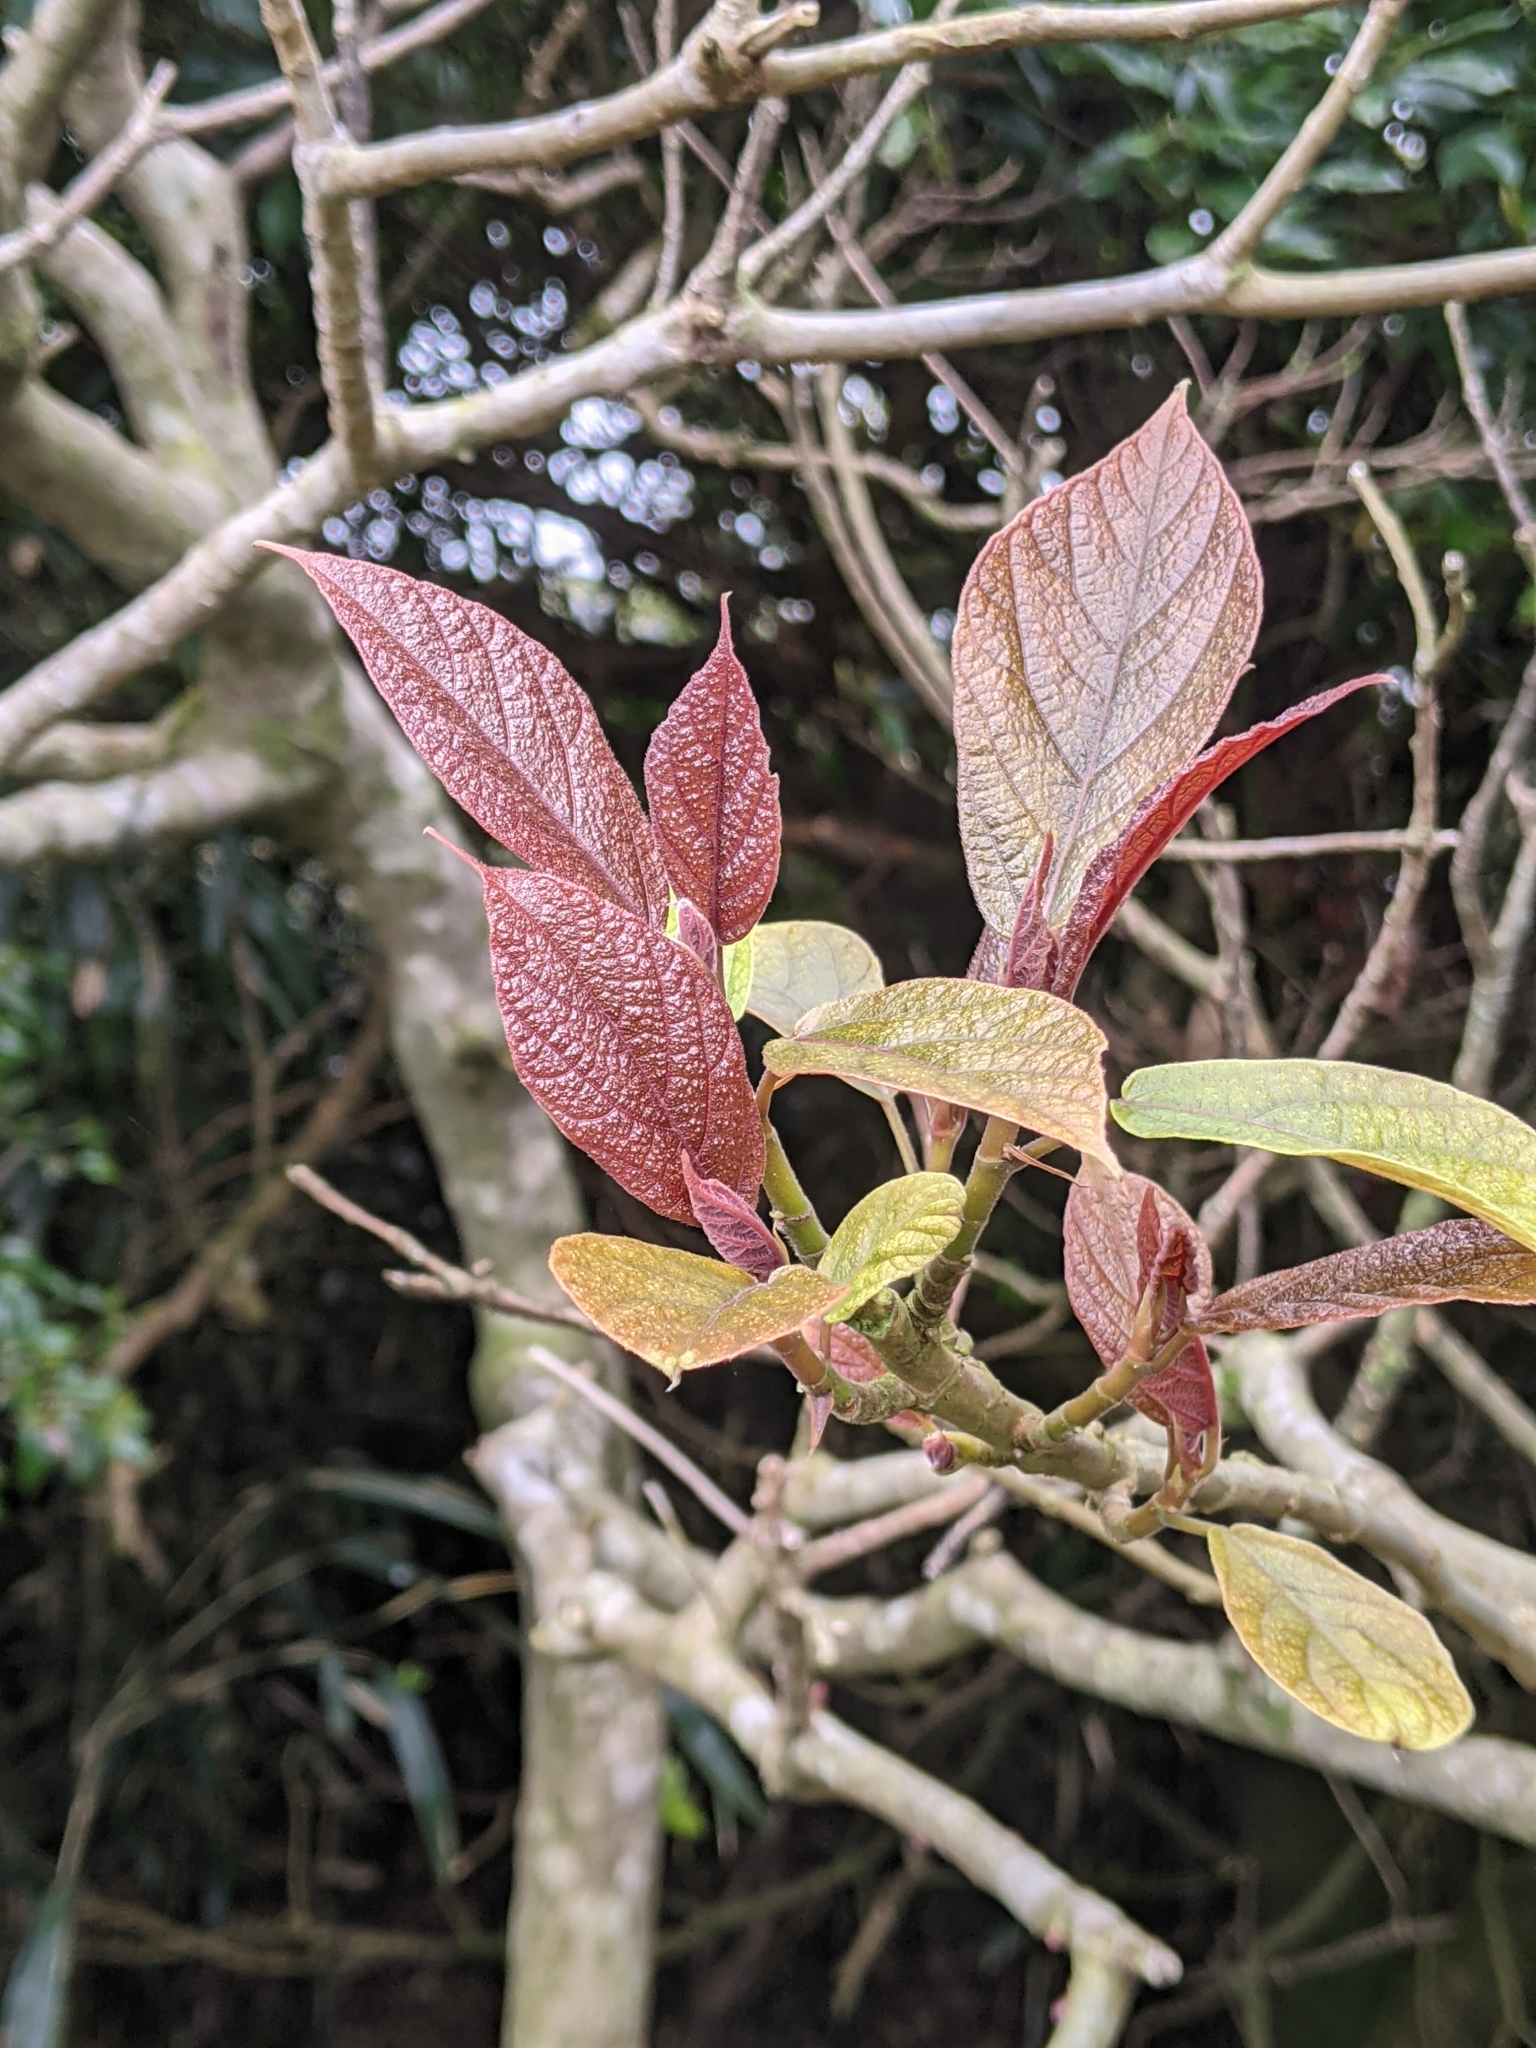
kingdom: Plantae
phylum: Tracheophyta
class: Magnoliopsida
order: Rosales
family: Moraceae
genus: Ficus
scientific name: Ficus erecta
